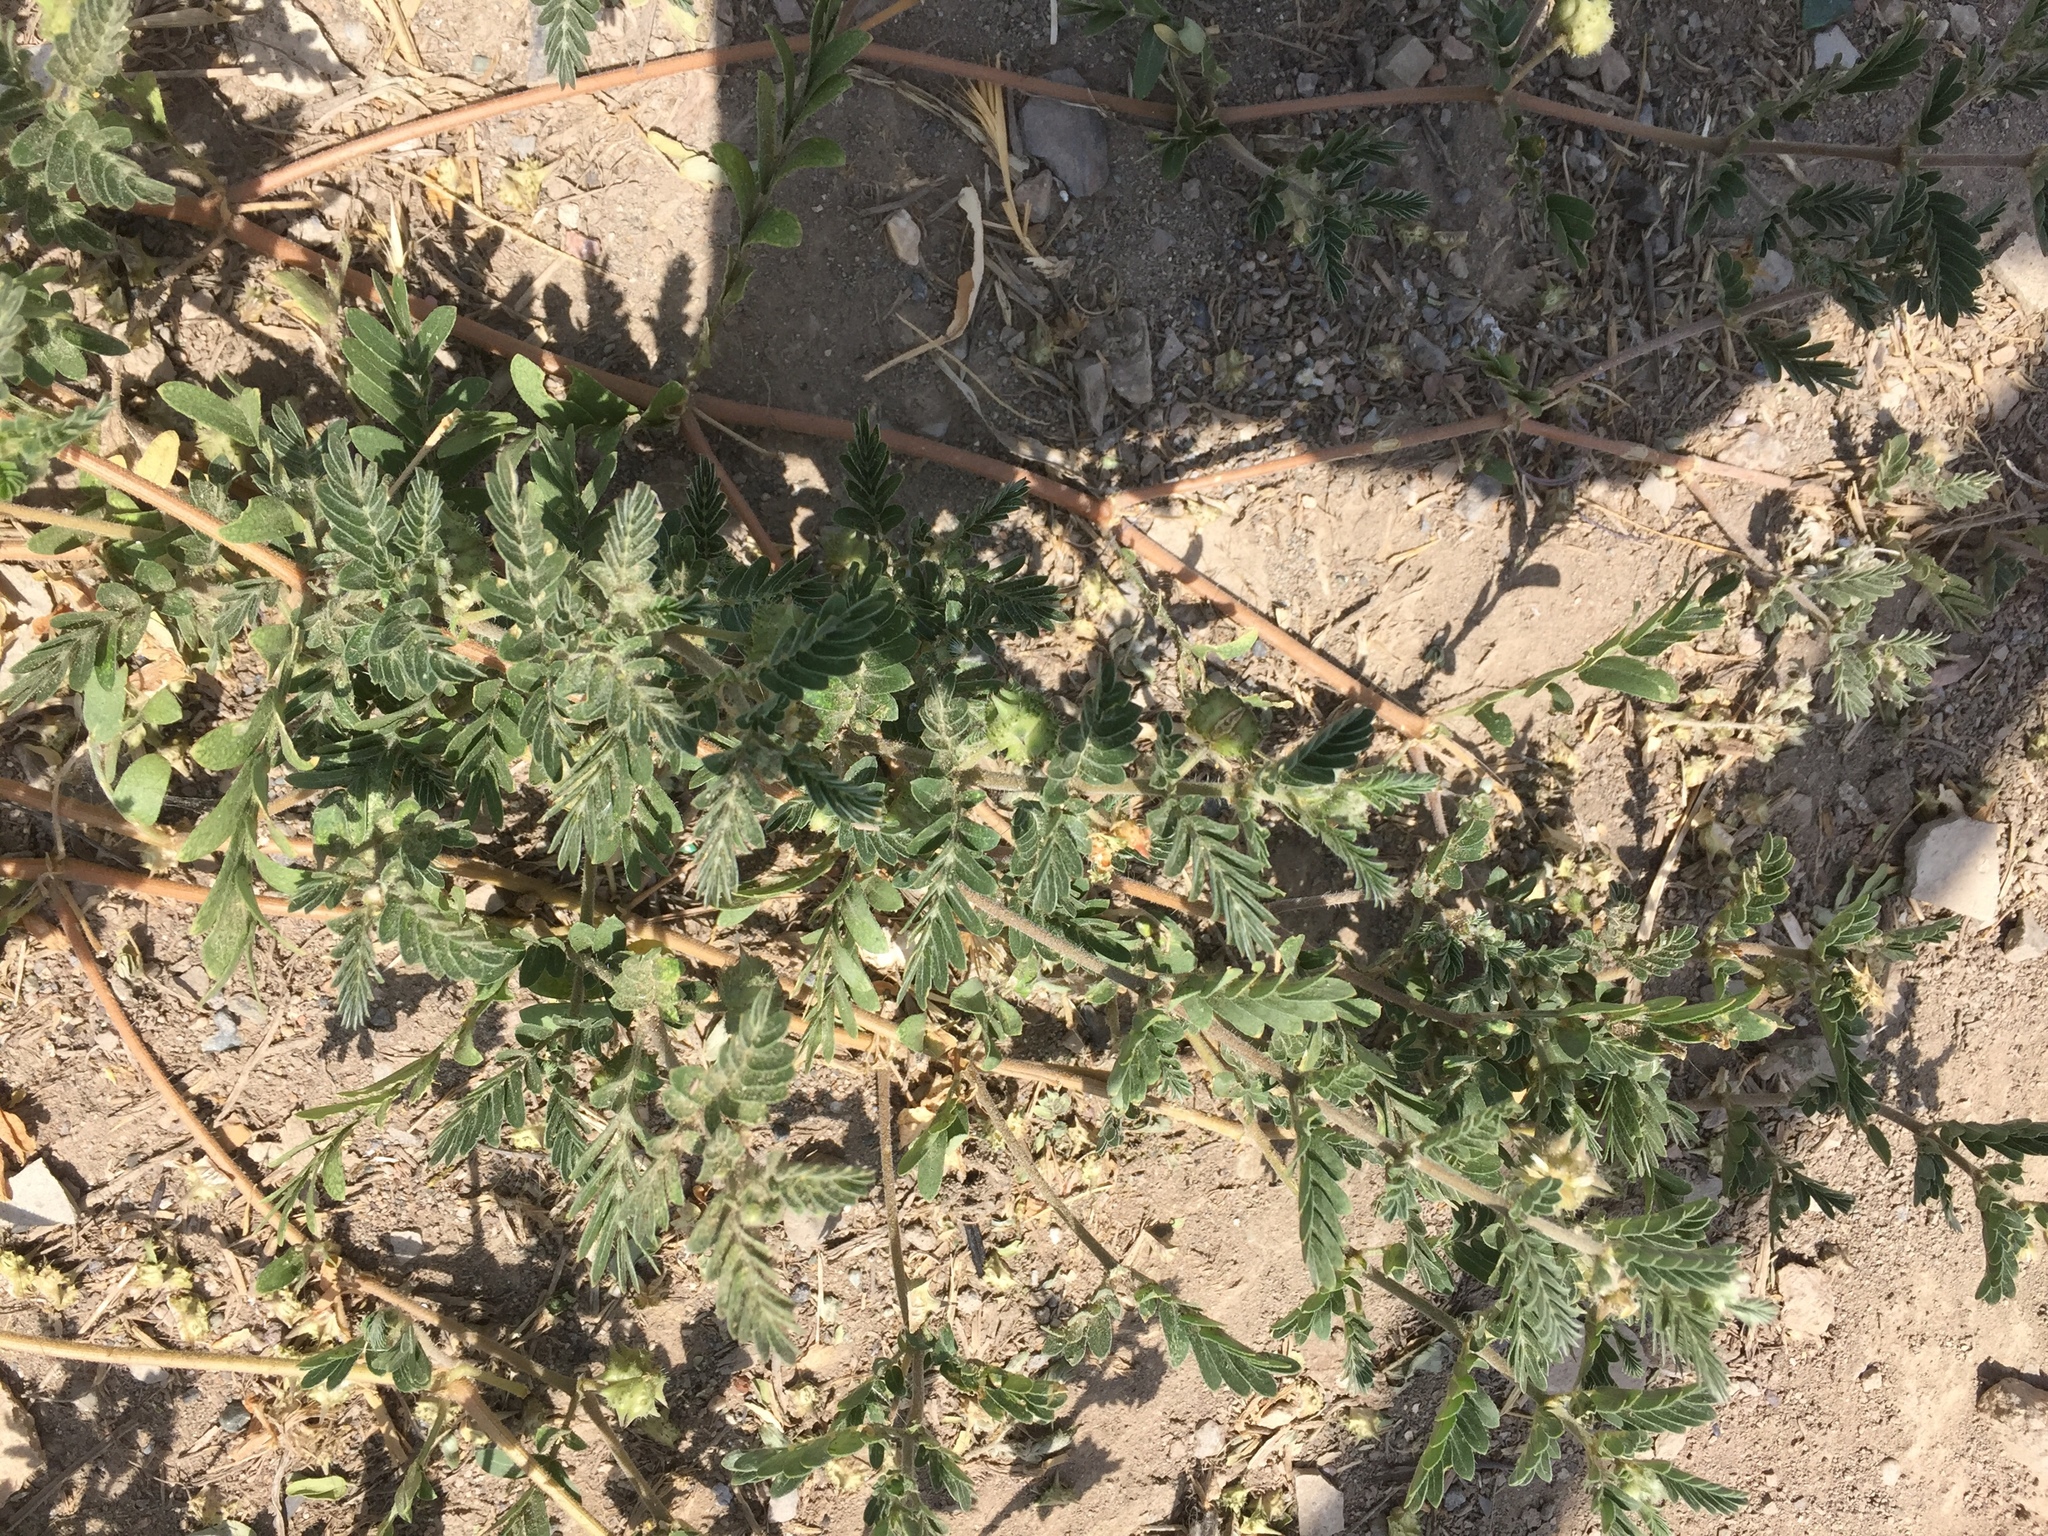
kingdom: Plantae
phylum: Tracheophyta
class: Magnoliopsida
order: Zygophyllales
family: Zygophyllaceae
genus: Tribulus
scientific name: Tribulus terrestris
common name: Puncturevine
